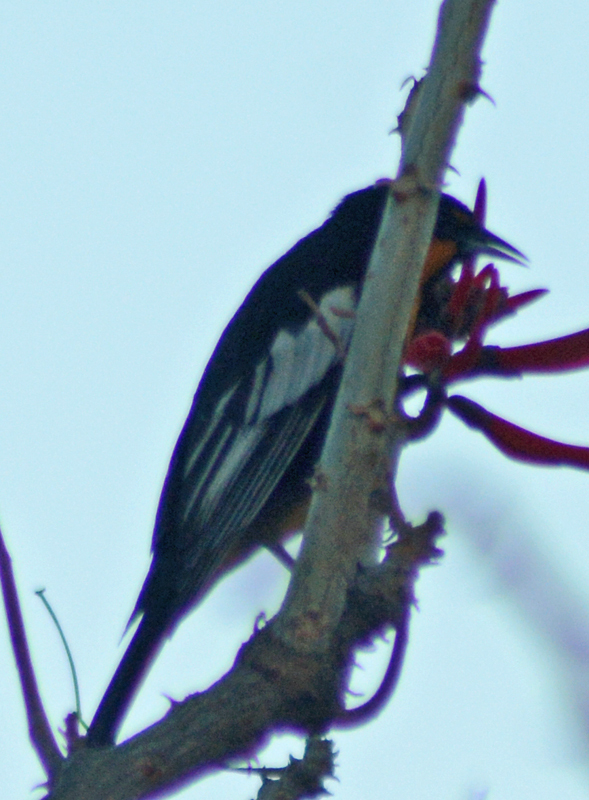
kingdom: Animalia
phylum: Chordata
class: Aves
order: Passeriformes
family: Icteridae
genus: Icterus
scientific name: Icterus abeillei
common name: Black-backed oriole
